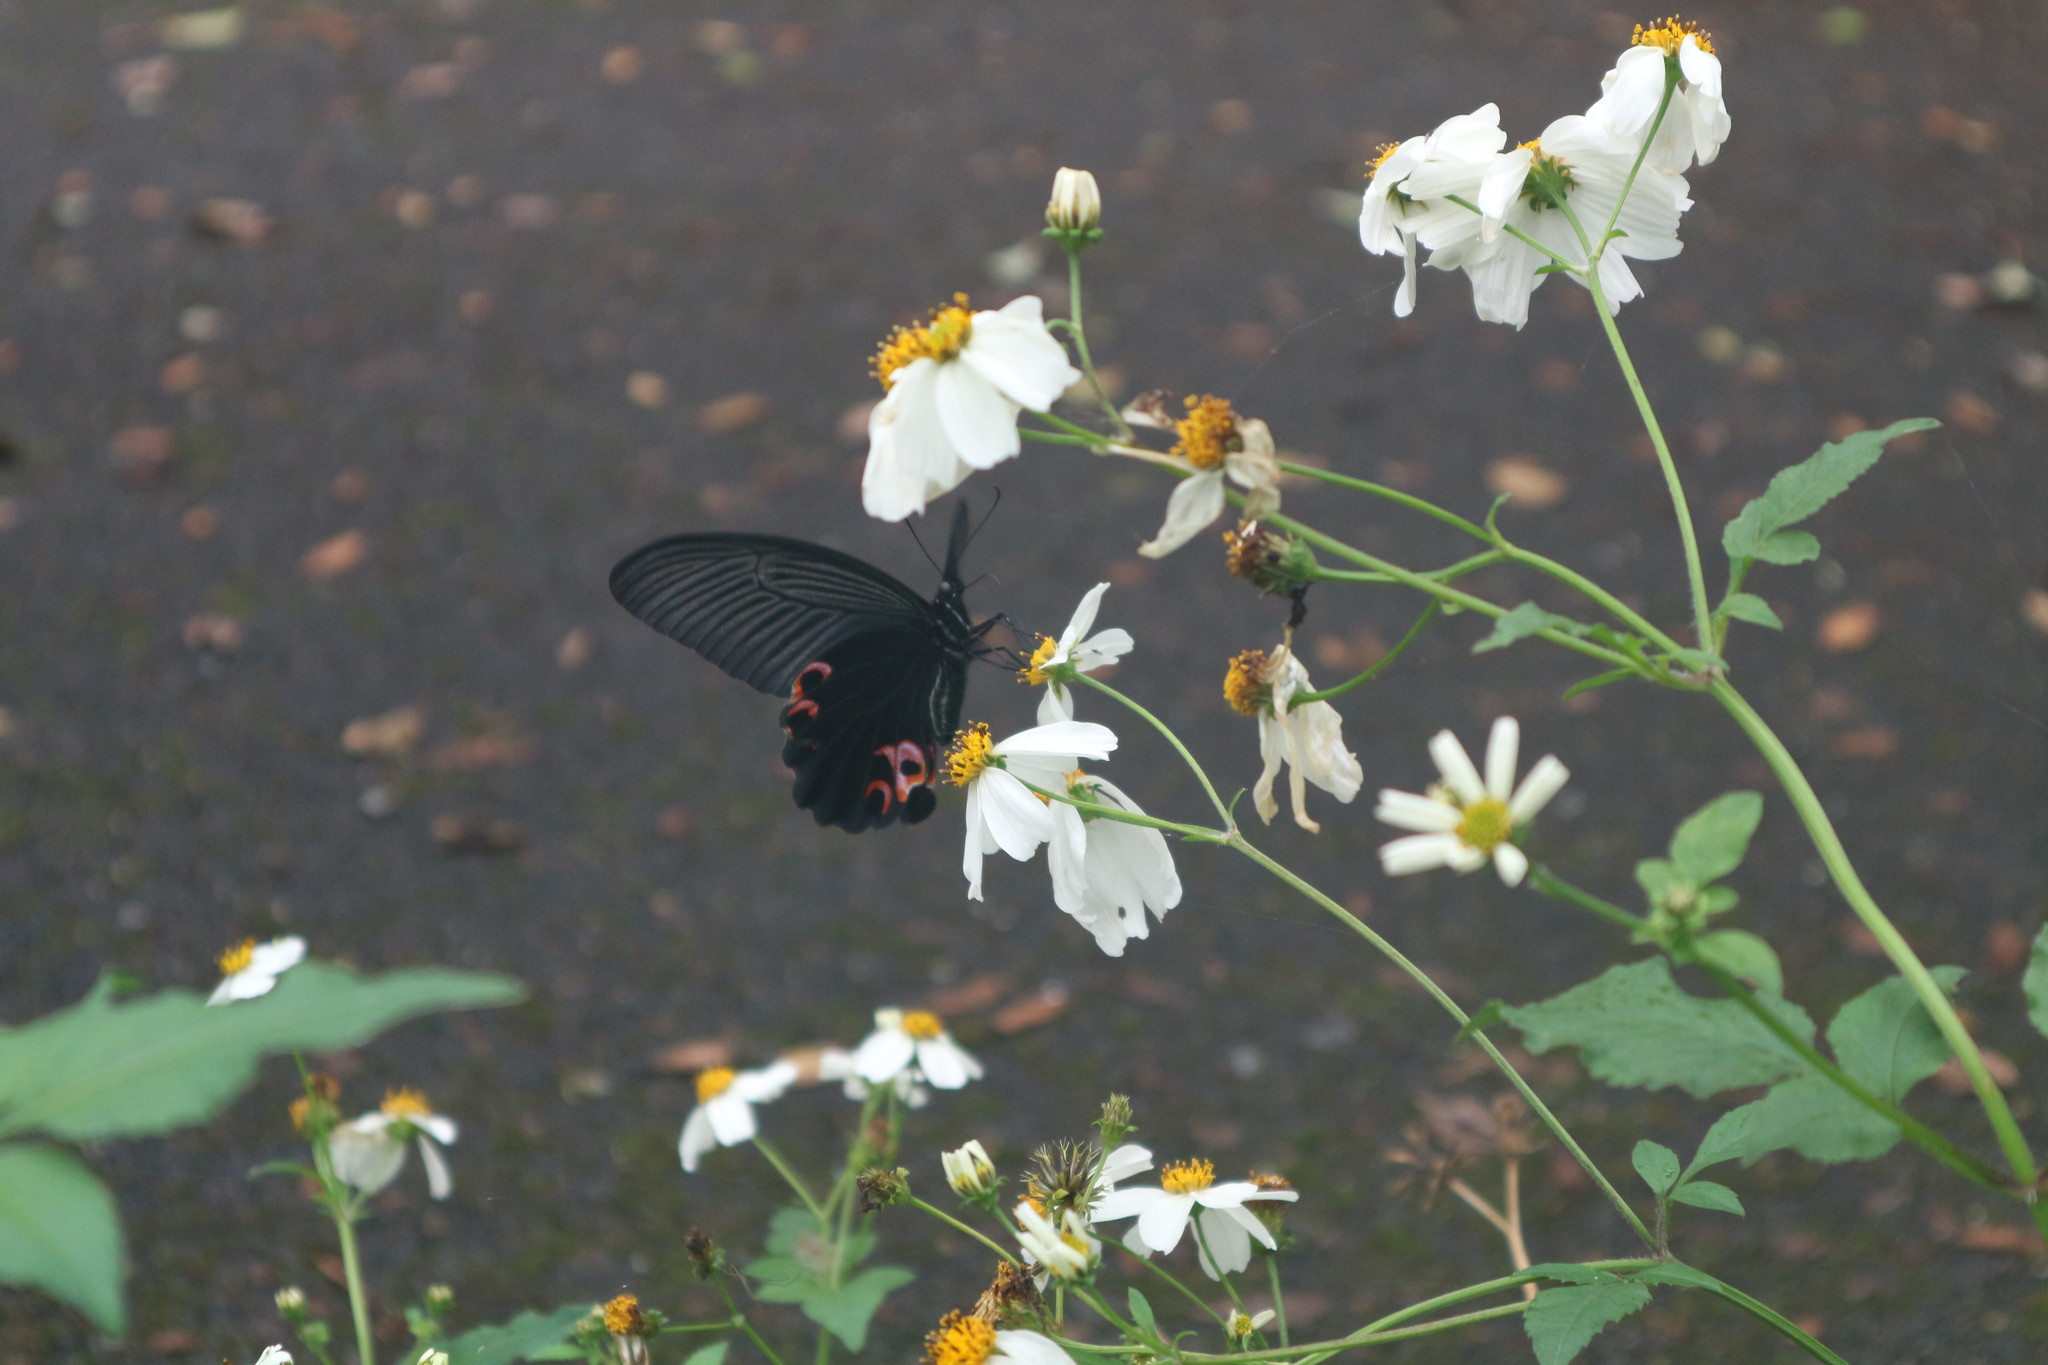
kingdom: Animalia
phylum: Arthropoda
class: Insecta
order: Lepidoptera
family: Papilionidae
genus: Papilio
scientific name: Papilio protenor
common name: Spangle
